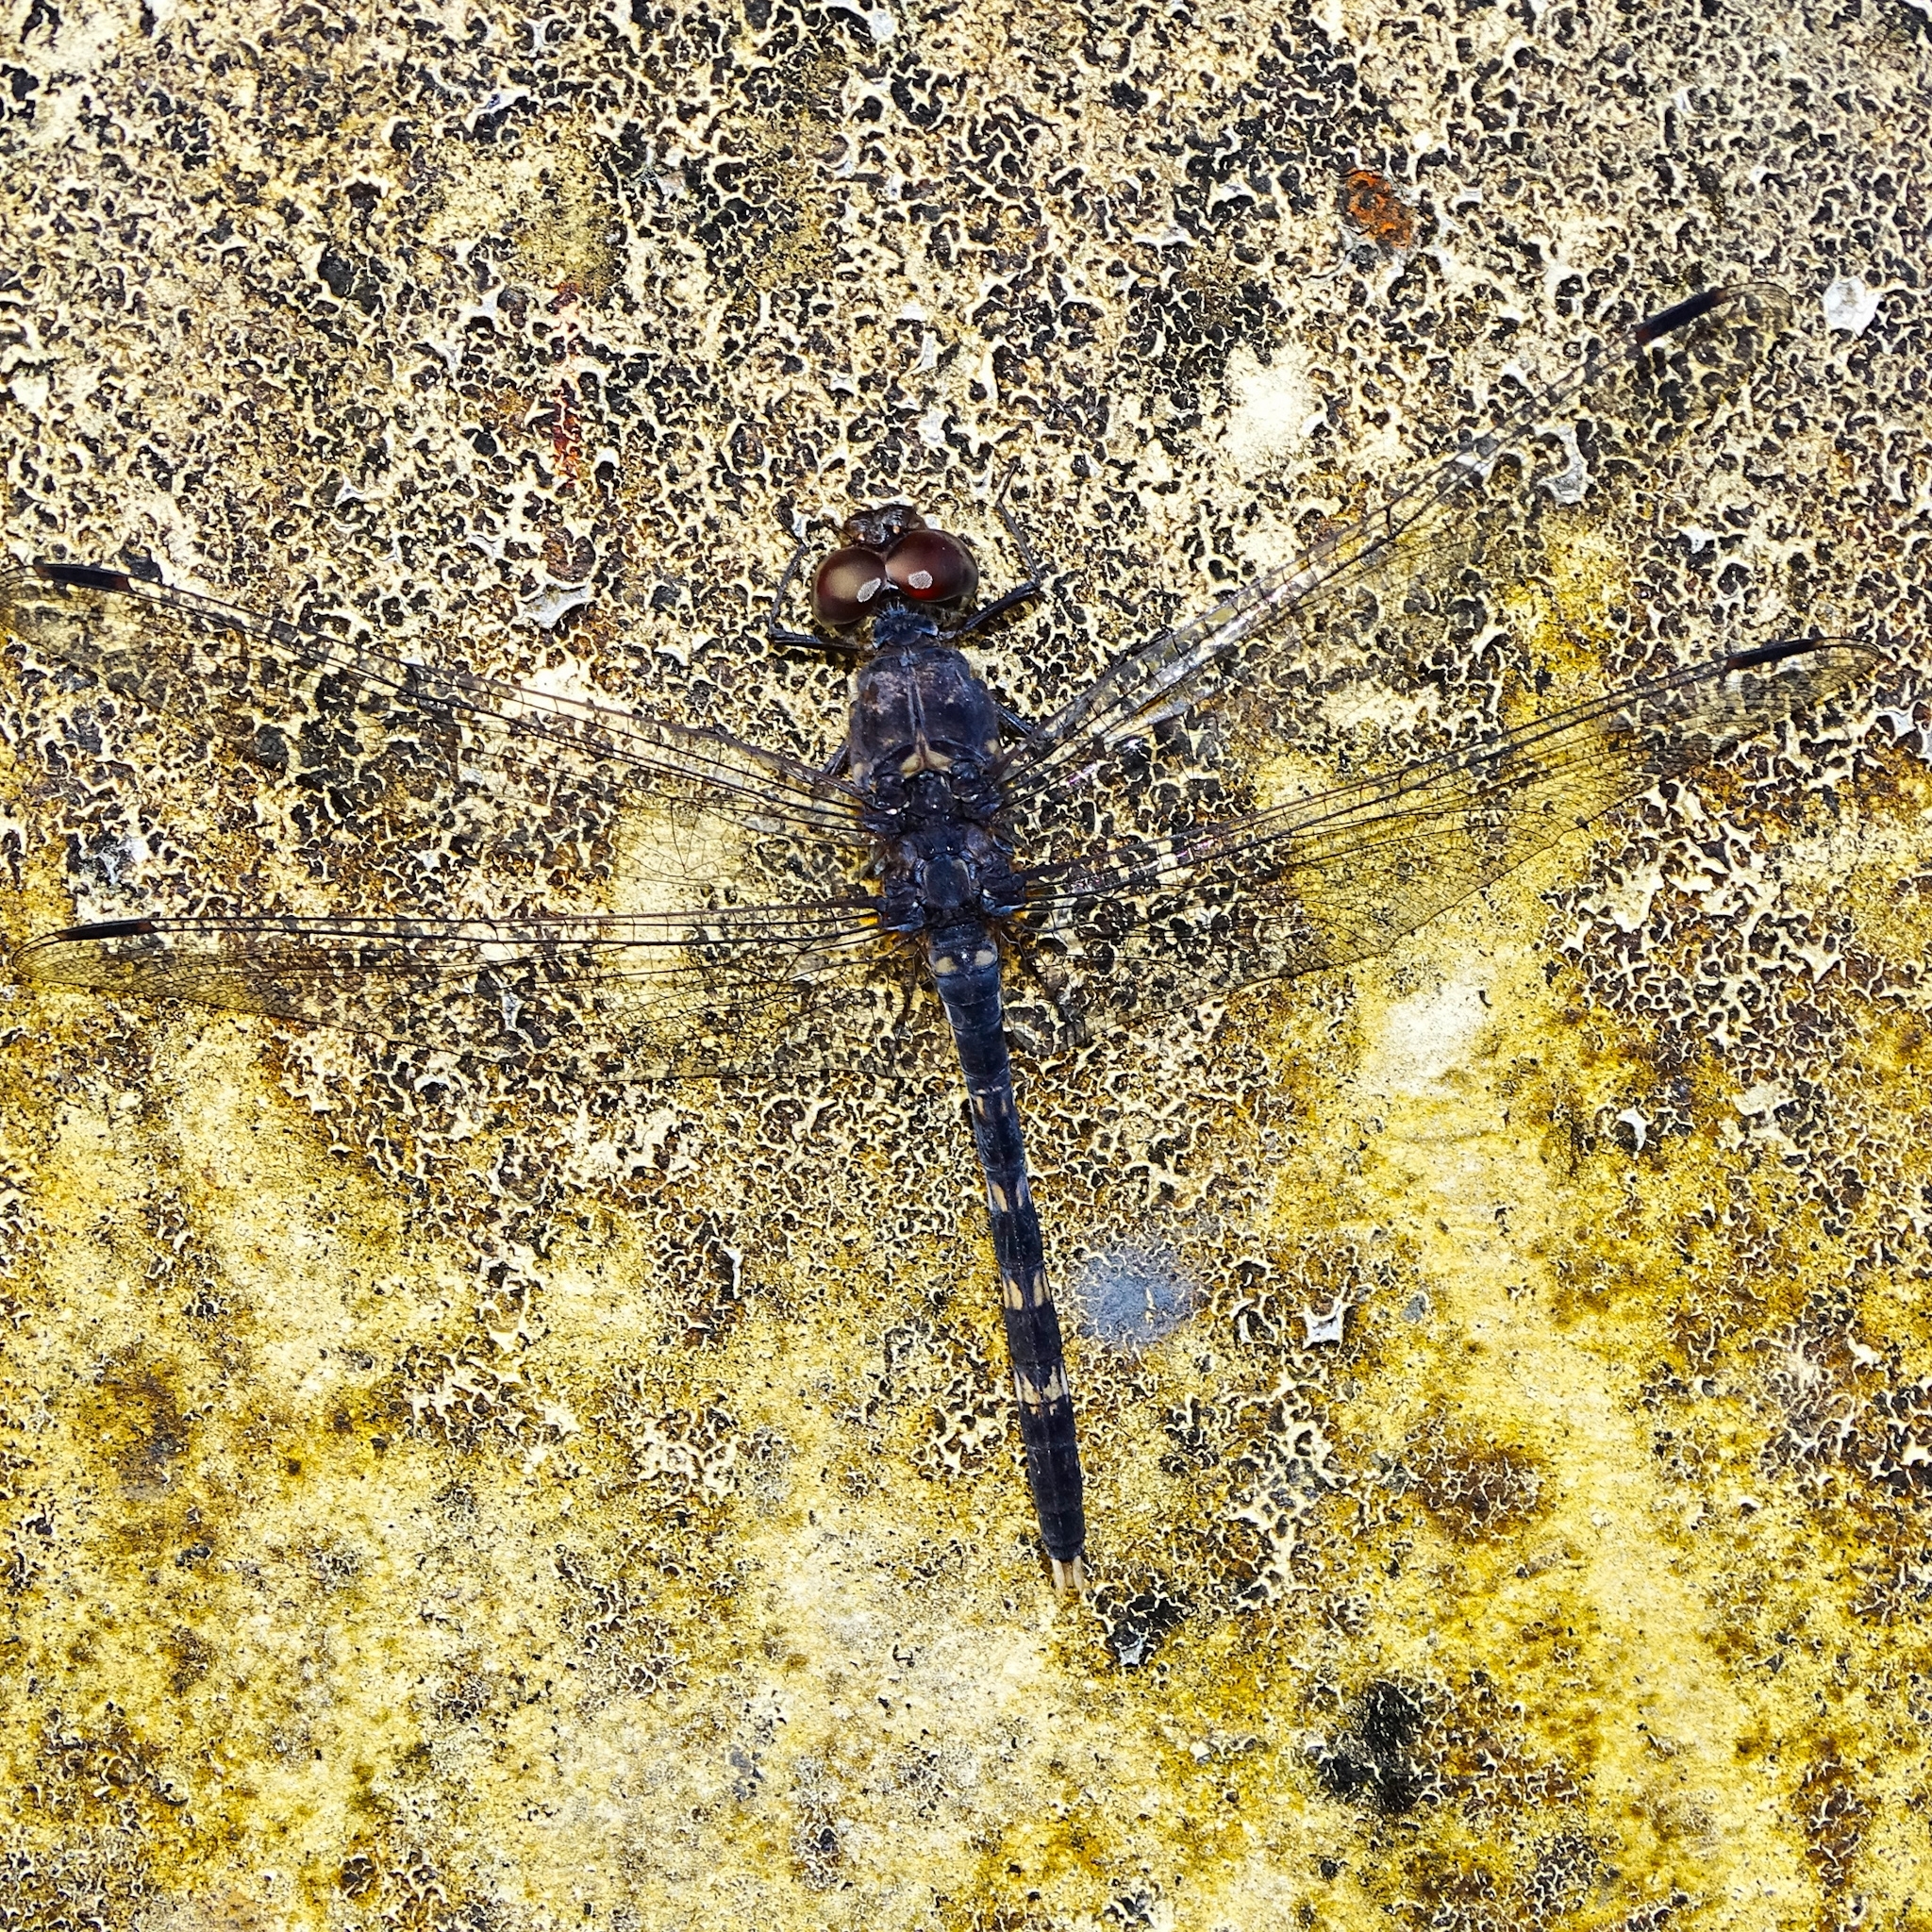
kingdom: Animalia
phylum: Arthropoda
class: Insecta
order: Odonata
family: Libellulidae
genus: Bradinopyga
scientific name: Bradinopyga geminata
